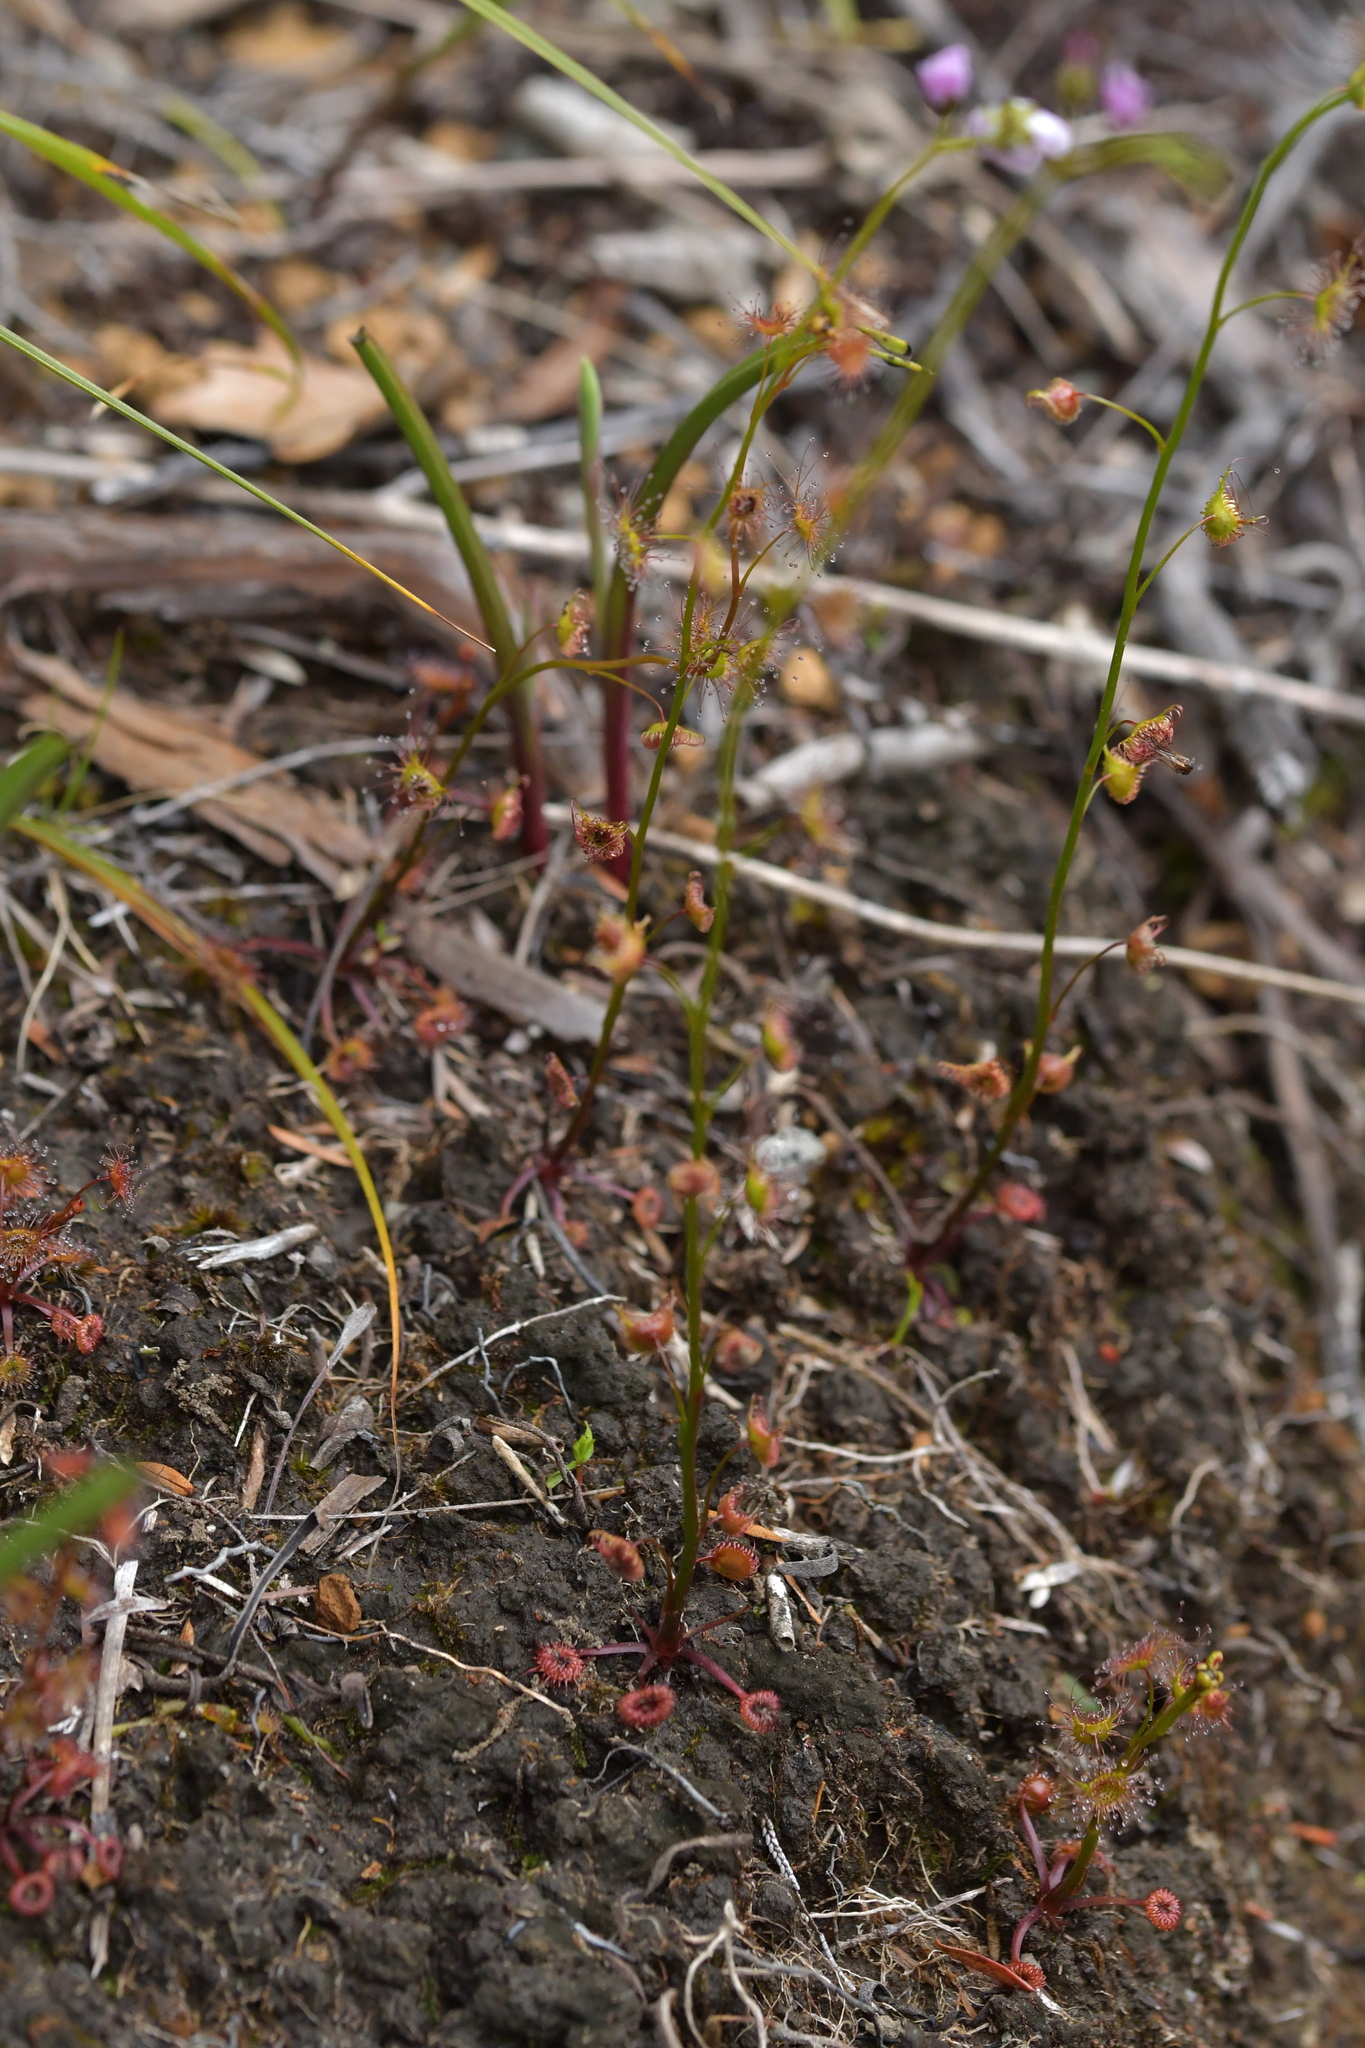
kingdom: Plantae
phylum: Tracheophyta
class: Magnoliopsida
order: Caryophyllales
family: Droseraceae
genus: Drosera
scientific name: Drosera peltata
